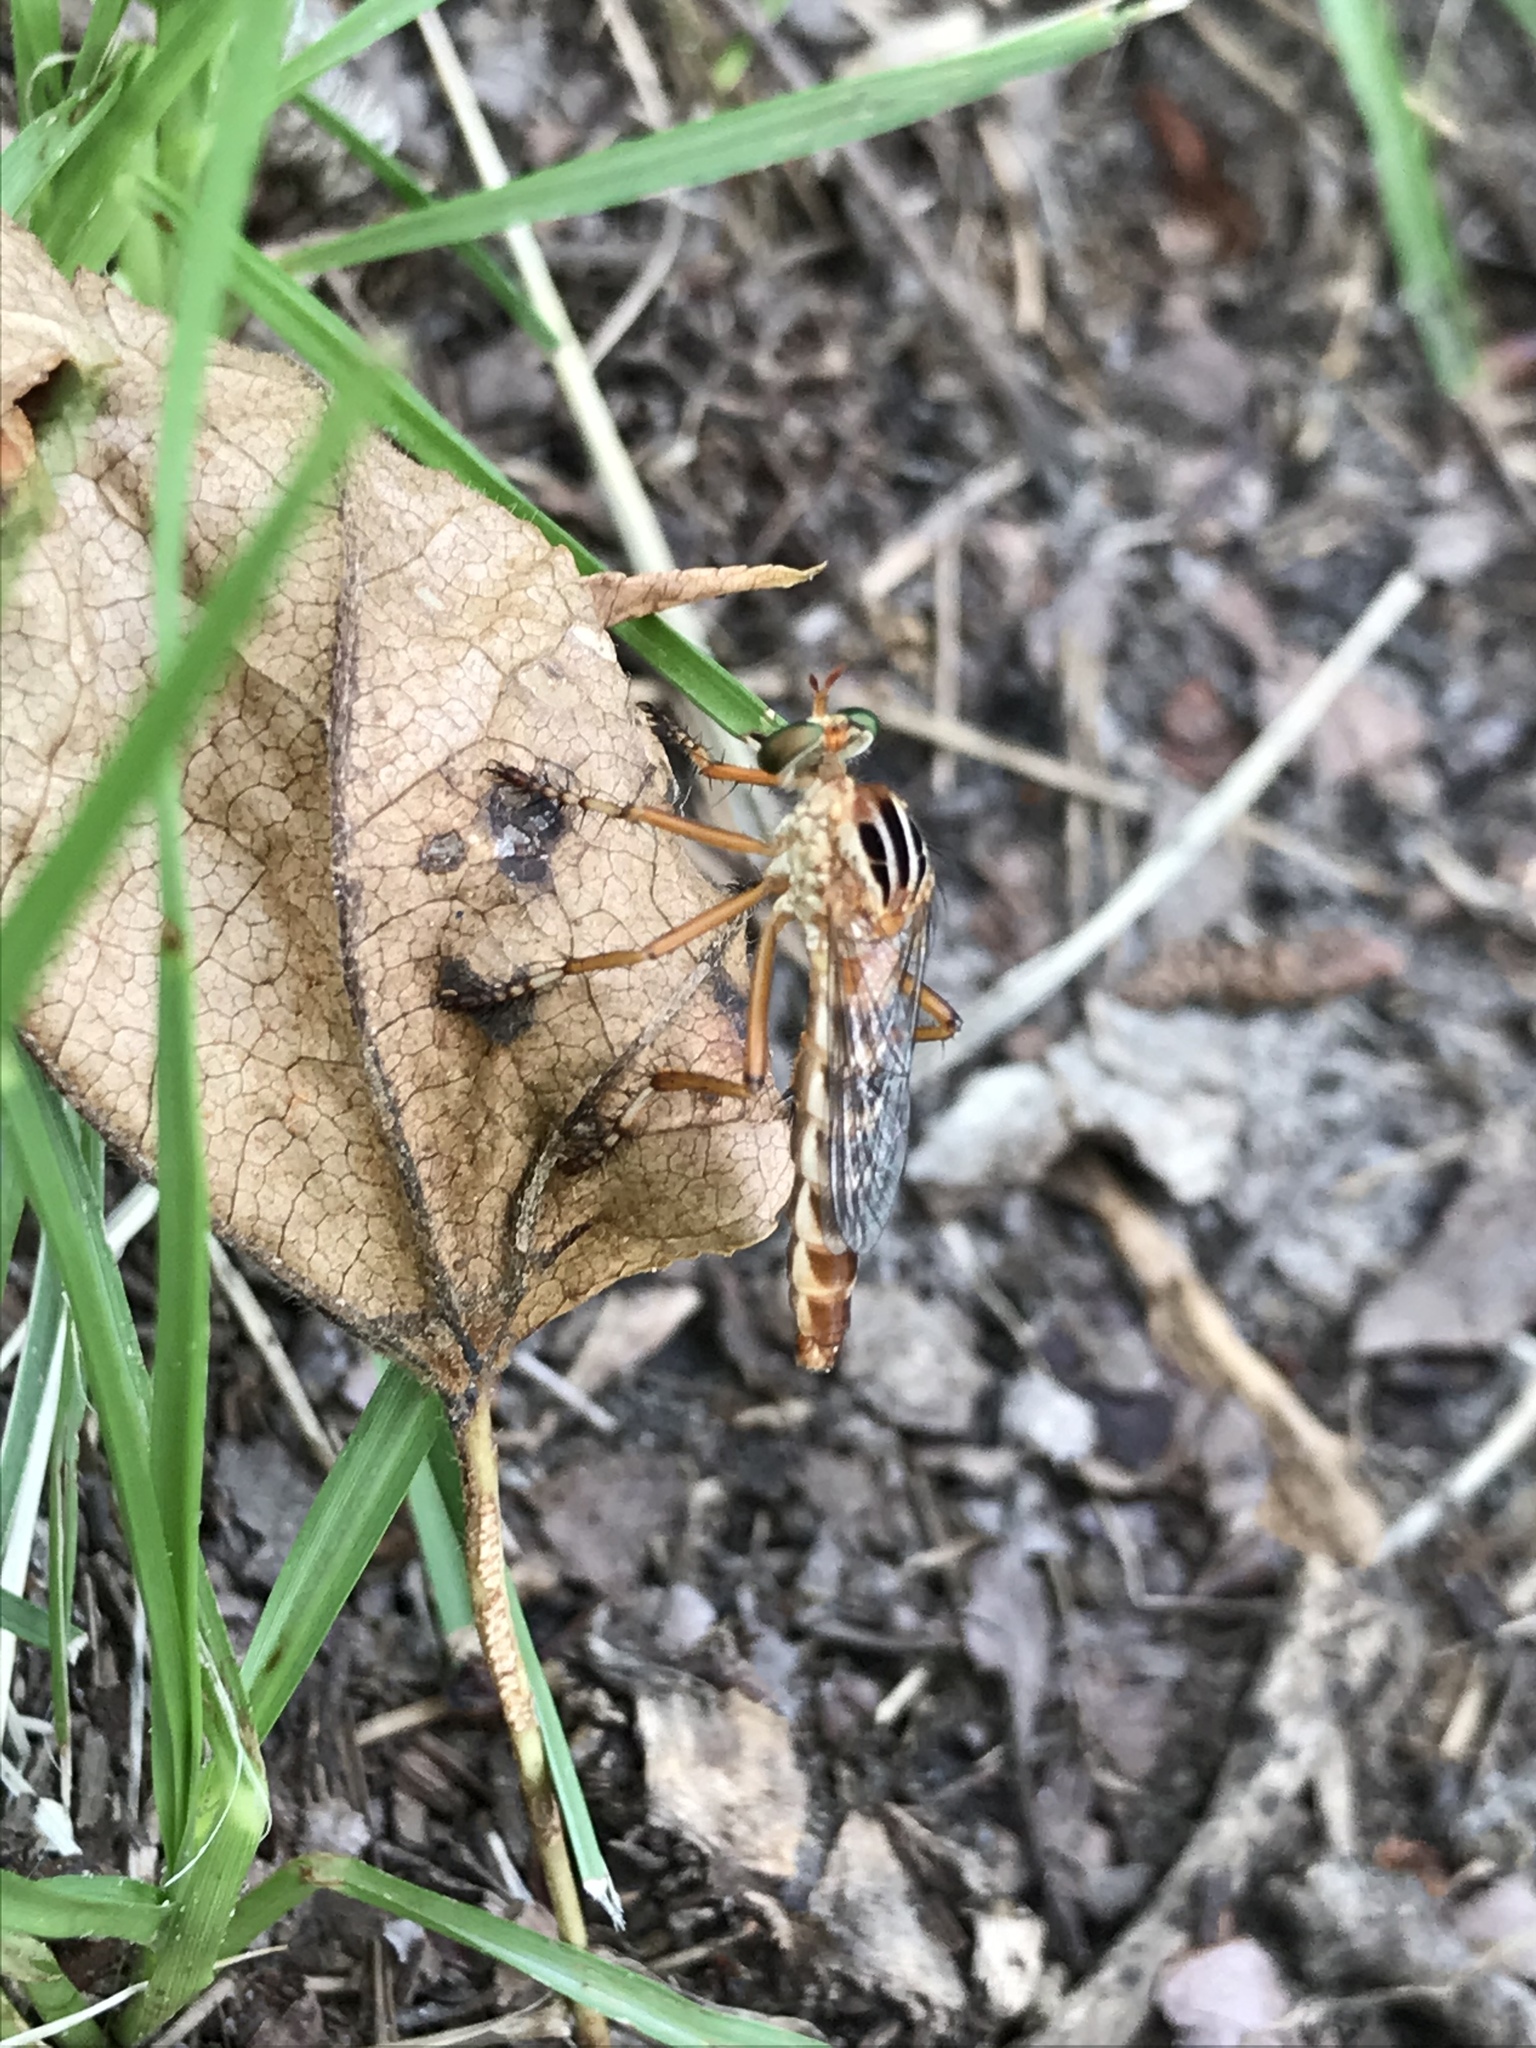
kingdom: Animalia
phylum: Arthropoda
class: Insecta
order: Diptera
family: Asilidae
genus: Diogmites
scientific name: Diogmites misellus
